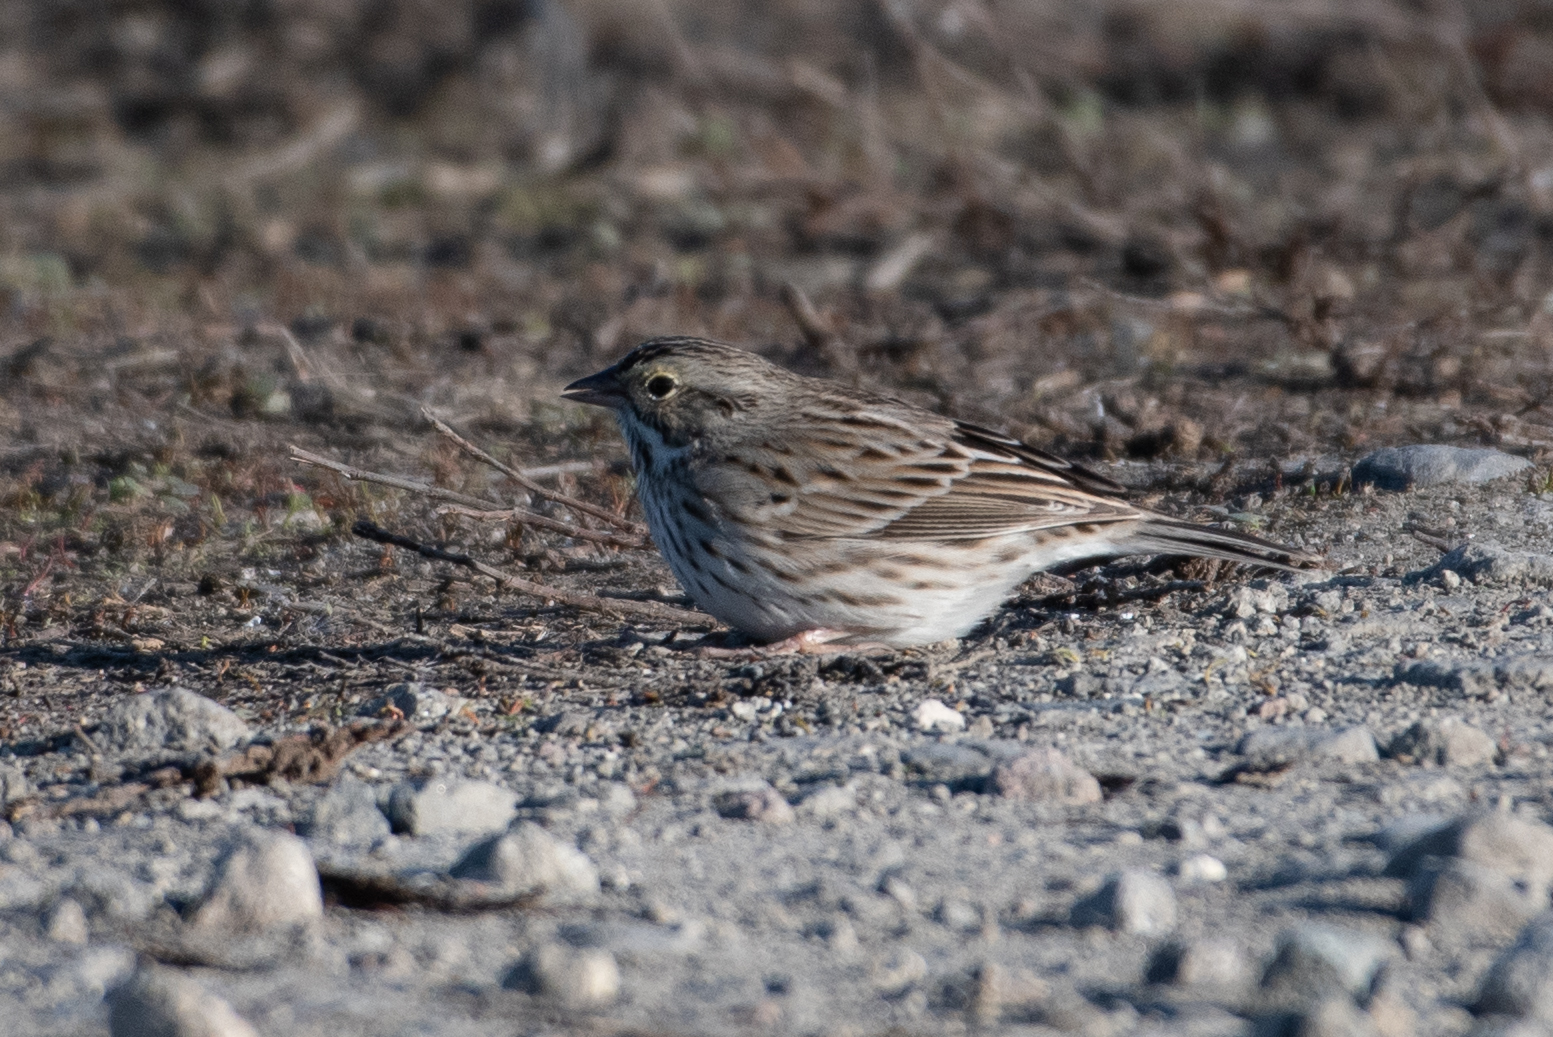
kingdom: Animalia
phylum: Chordata
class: Aves
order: Passeriformes
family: Passerellidae
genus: Passerculus
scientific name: Passerculus sandwichensis
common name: Savannah sparrow
